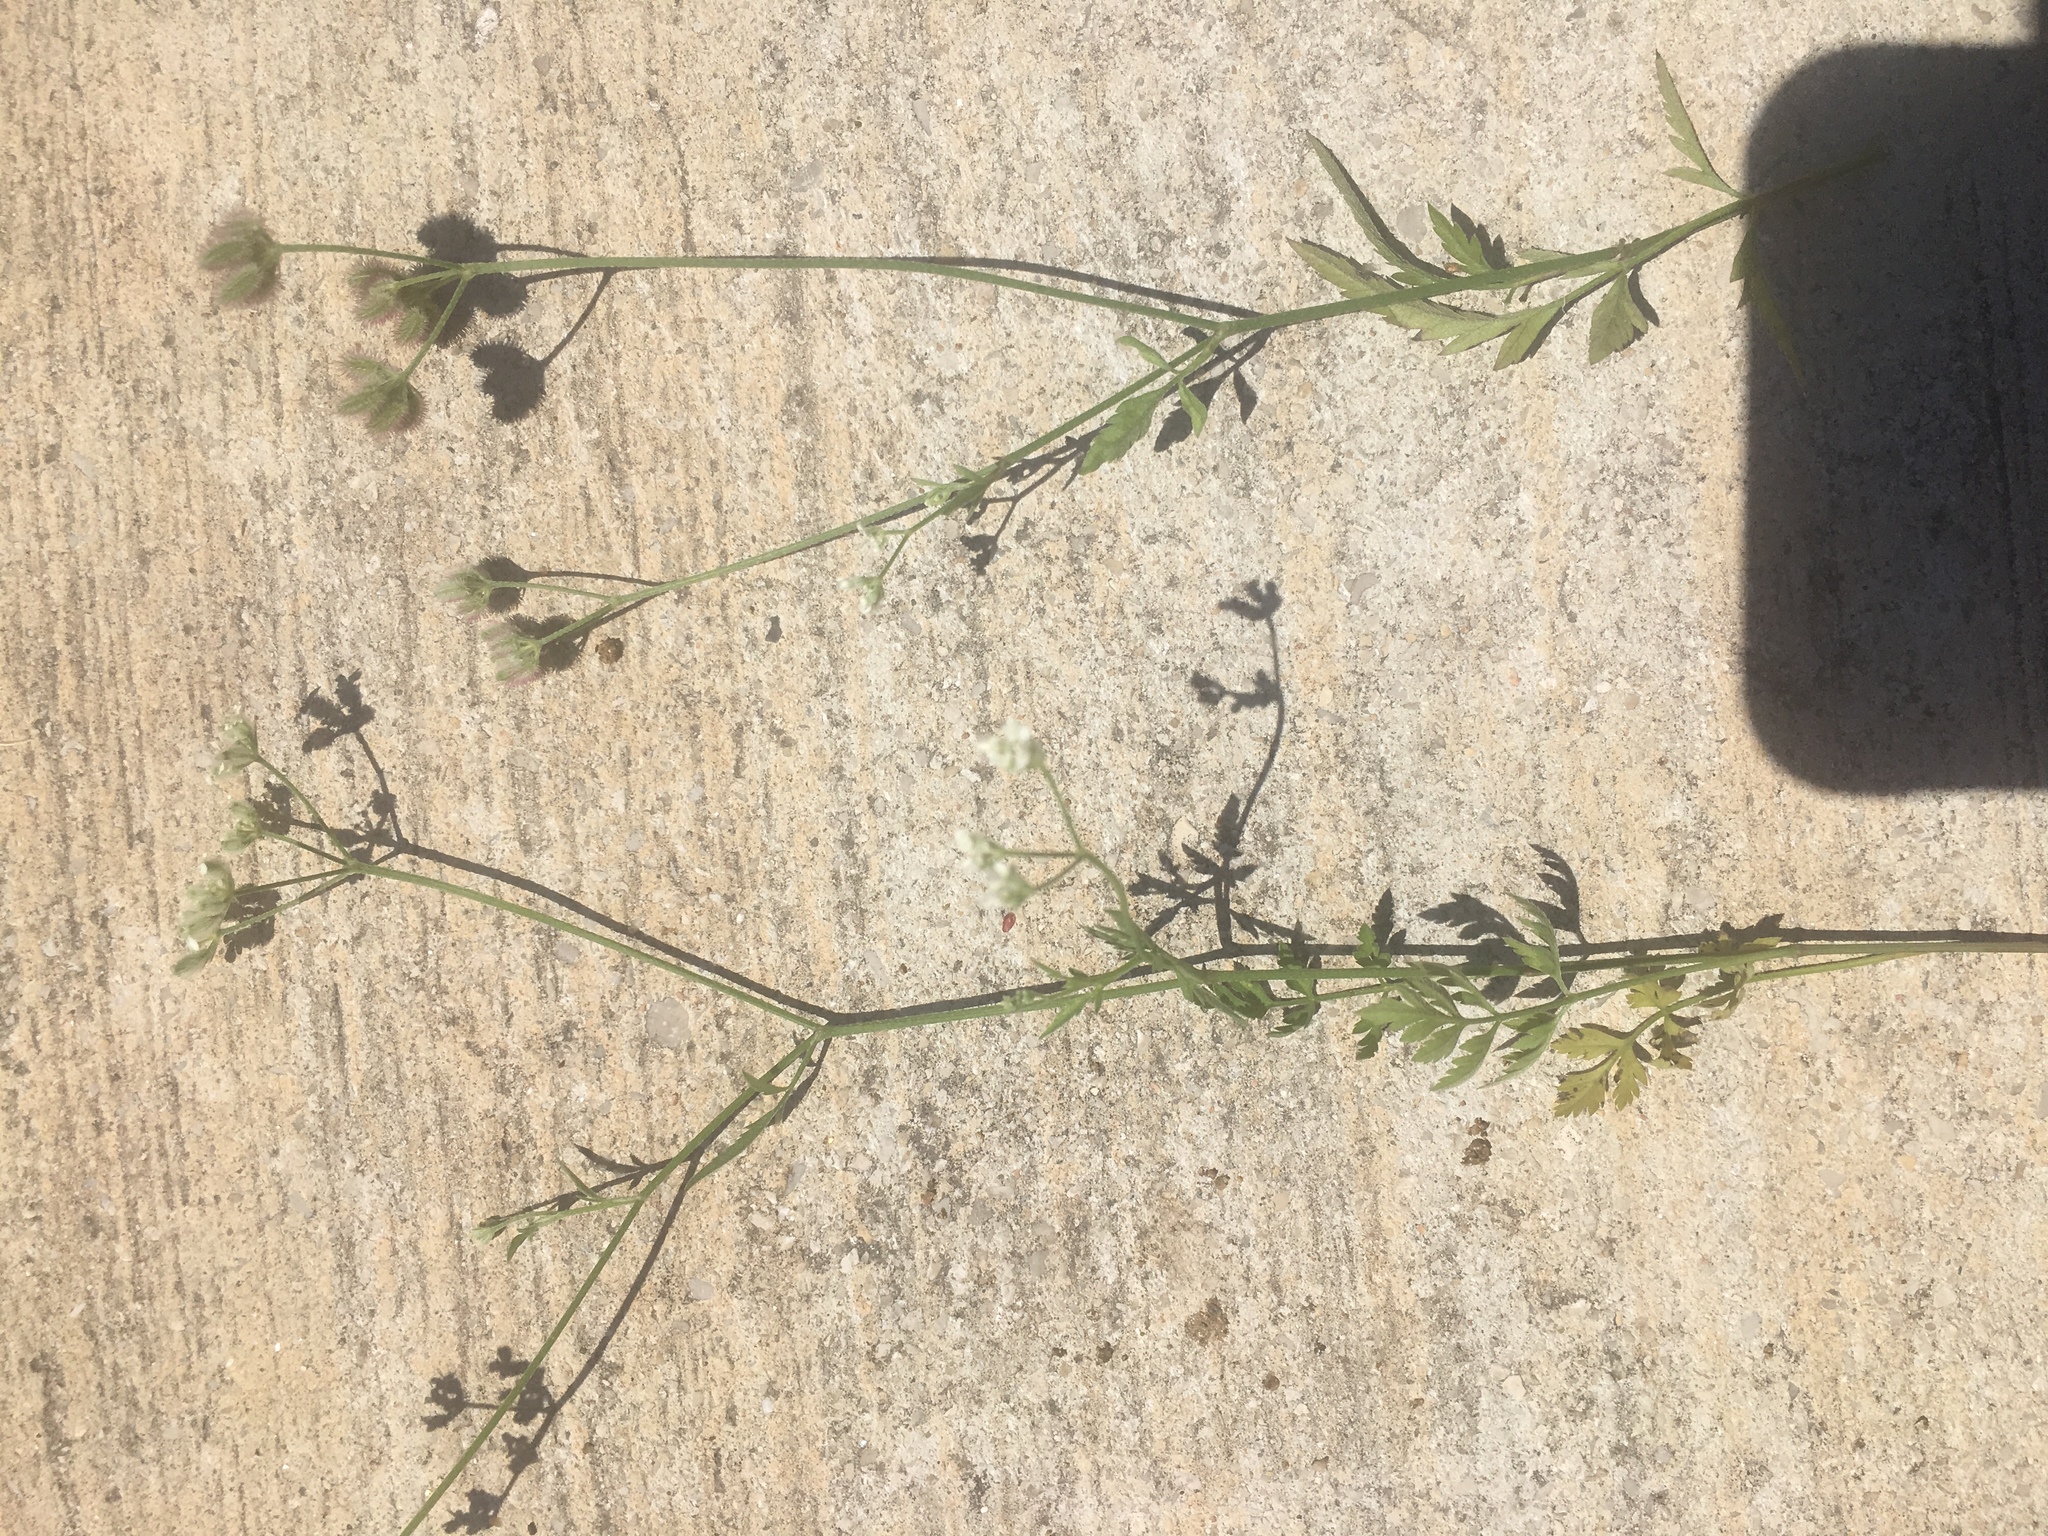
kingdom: Plantae
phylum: Tracheophyta
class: Magnoliopsida
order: Apiales
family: Apiaceae
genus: Torilis
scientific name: Torilis arvensis
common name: Spreading hedge-parsley
